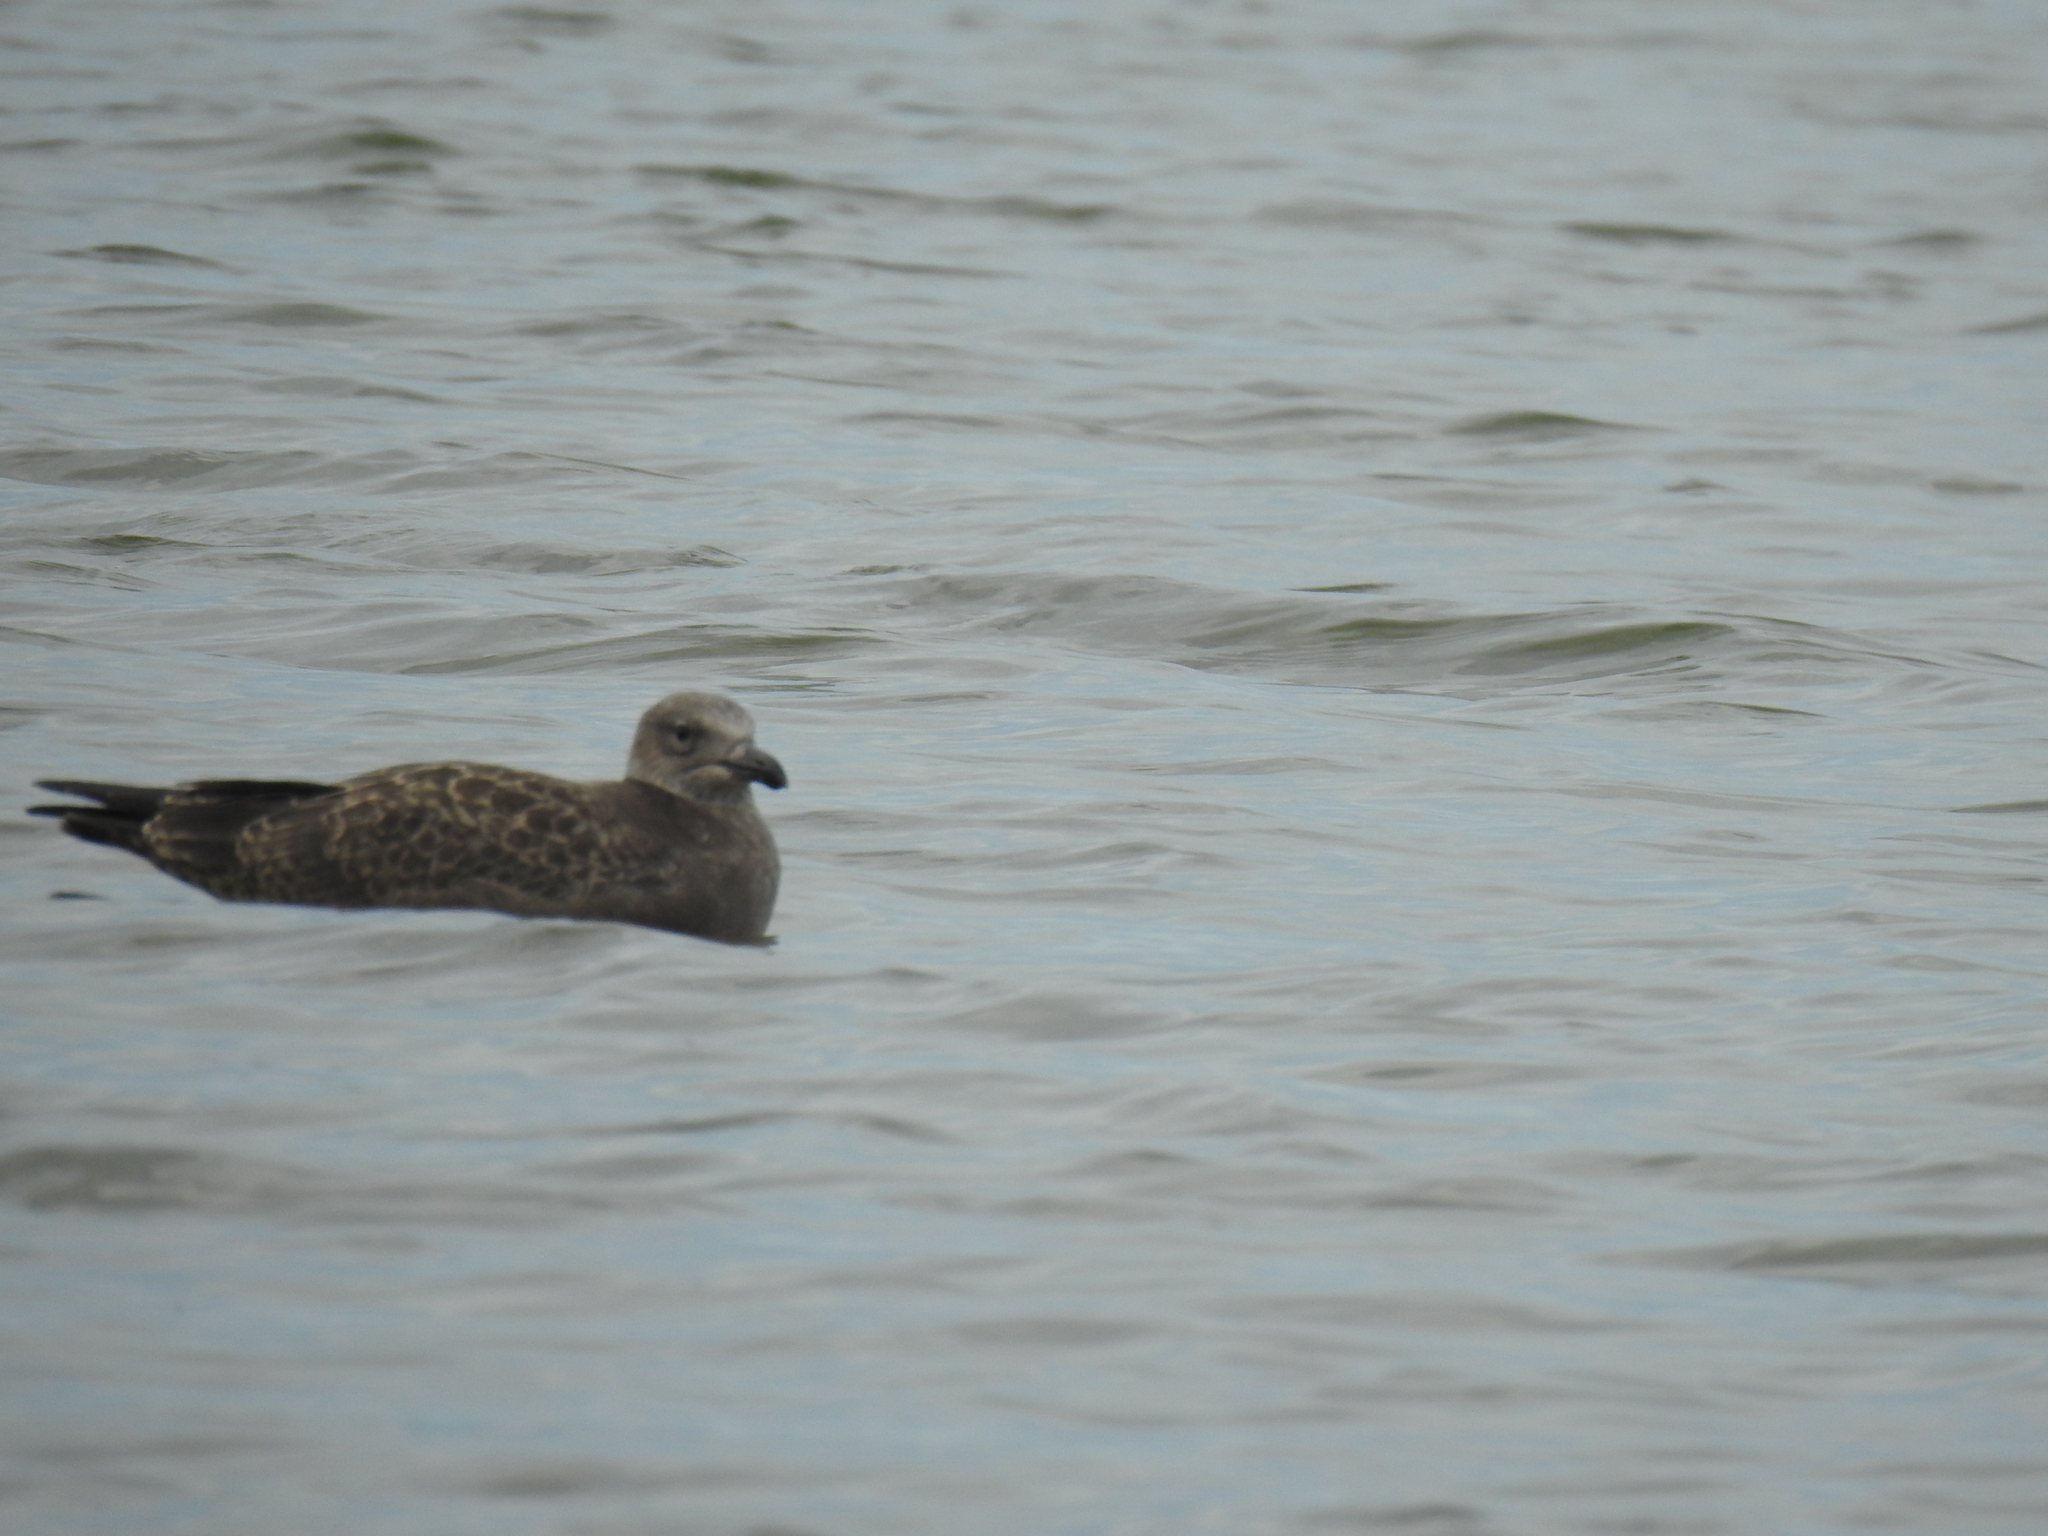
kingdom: Animalia
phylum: Chordata
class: Aves
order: Charadriiformes
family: Laridae
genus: Larus
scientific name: Larus argentatus
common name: Herring gull
